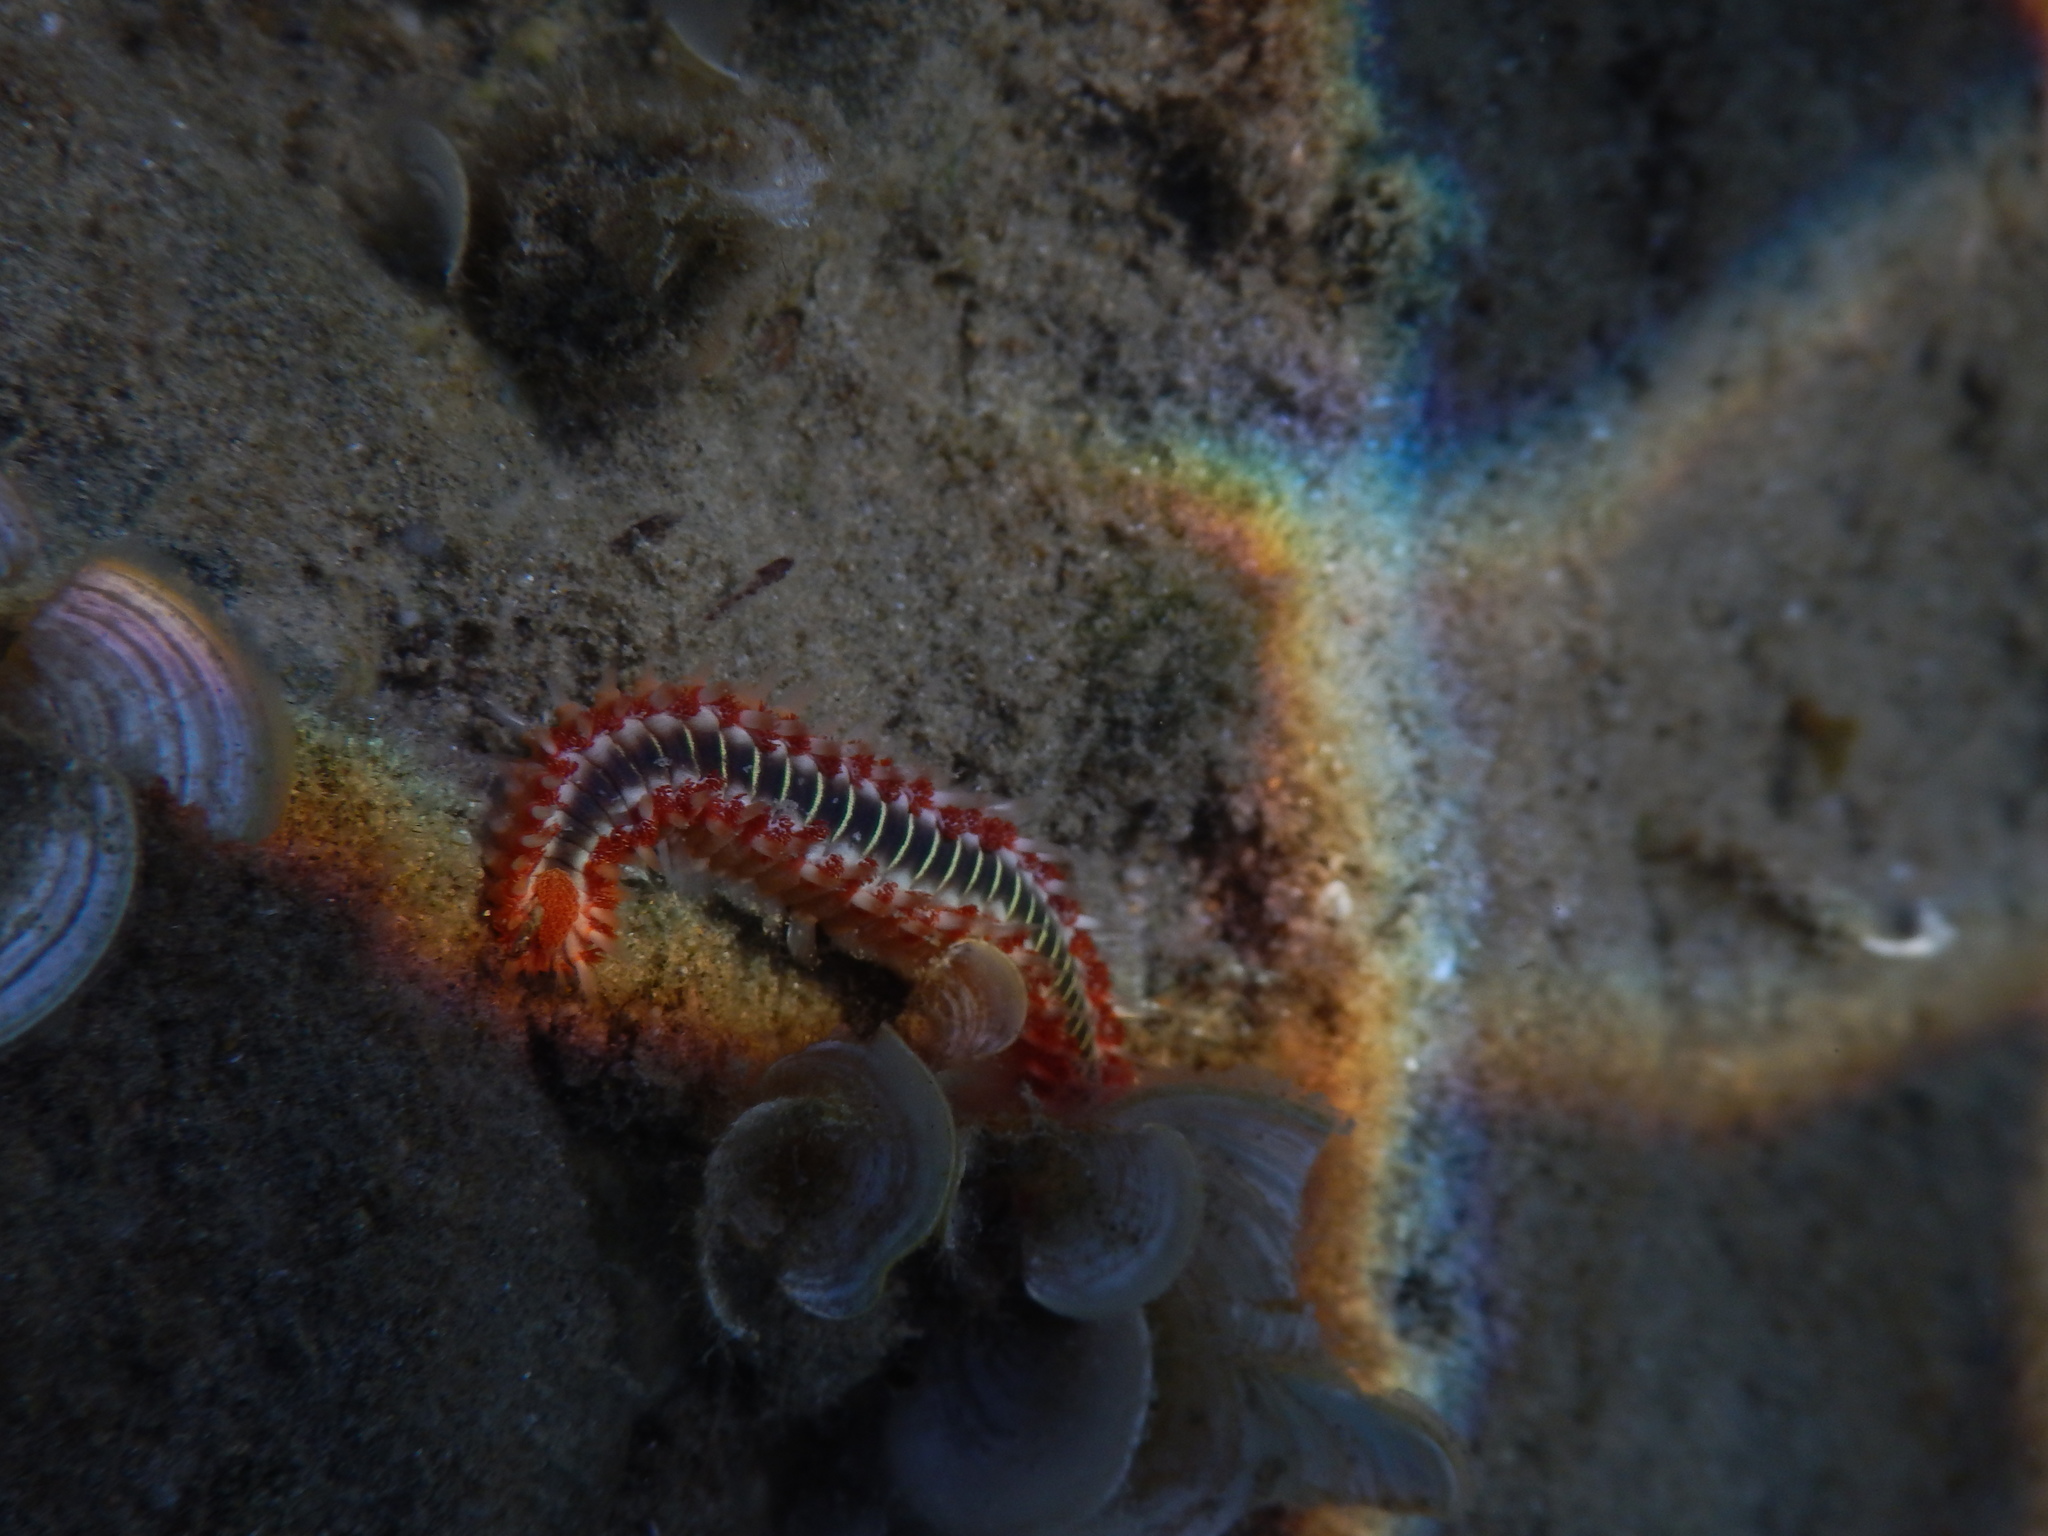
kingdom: Animalia
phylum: Annelida
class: Polychaeta
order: Amphinomida
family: Amphinomidae
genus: Hermodice
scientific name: Hermodice carunculata
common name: Bearded fireworm
